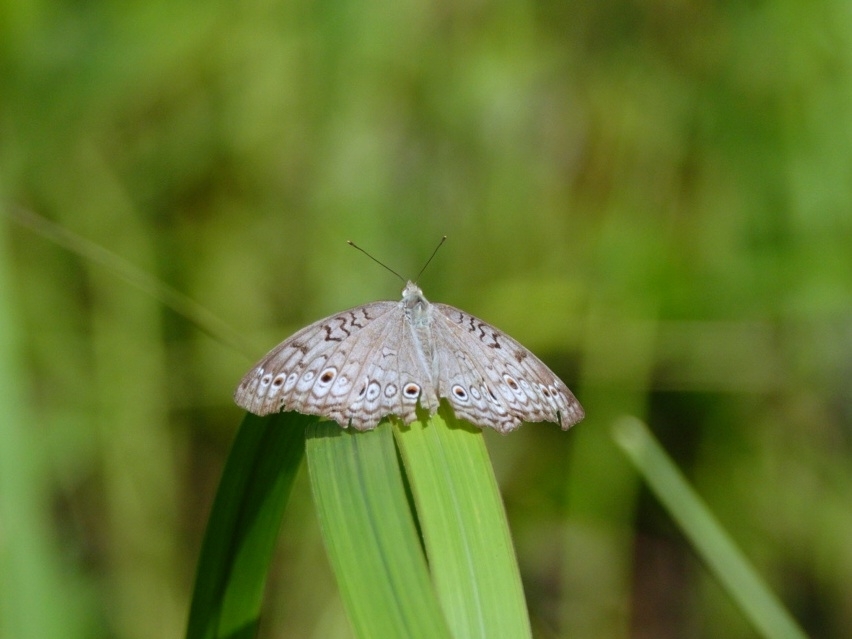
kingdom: Animalia
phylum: Arthropoda
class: Insecta
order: Lepidoptera
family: Nymphalidae
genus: Junonia
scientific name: Junonia atlites
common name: Grey pansy
